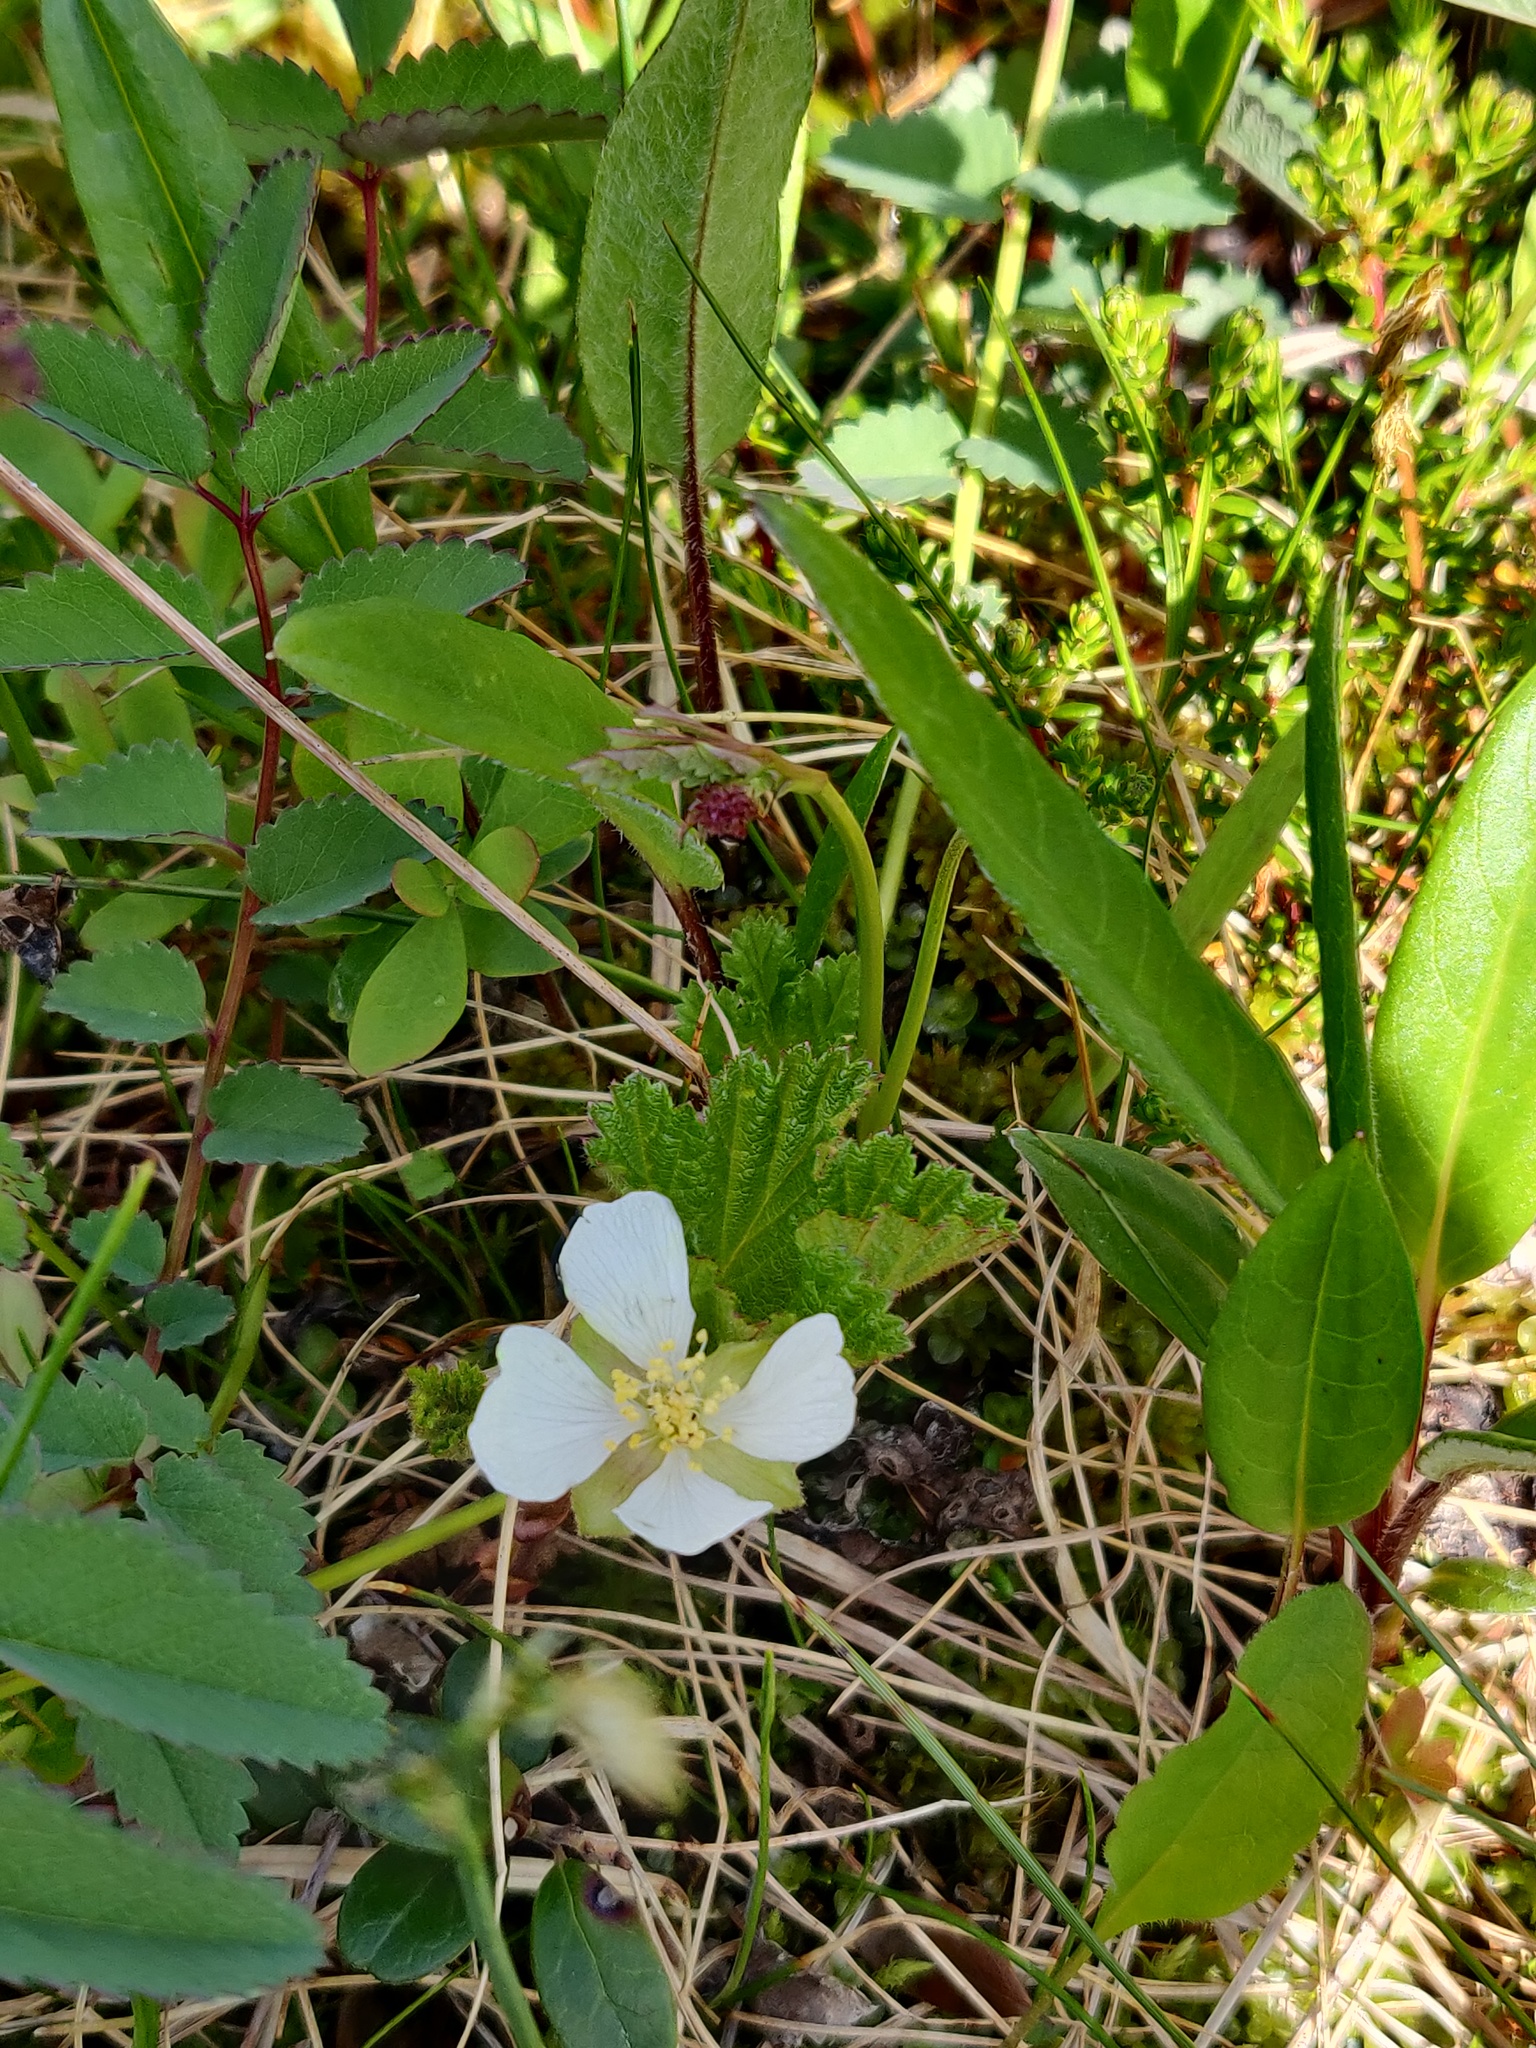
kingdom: Plantae
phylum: Tracheophyta
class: Magnoliopsida
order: Rosales
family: Rosaceae
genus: Rubus
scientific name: Rubus chamaemorus
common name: Cloudberry
